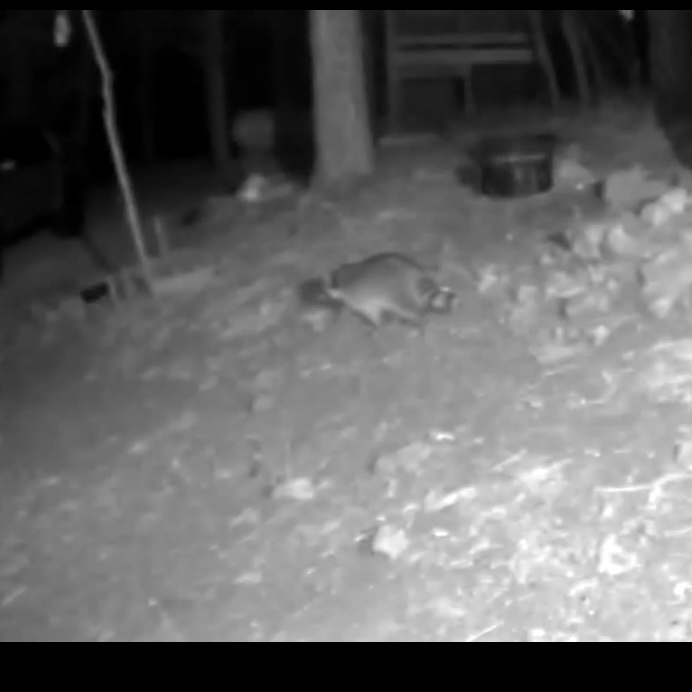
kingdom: Animalia
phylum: Chordata
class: Mammalia
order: Carnivora
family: Procyonidae
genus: Procyon
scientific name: Procyon lotor
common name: Raccoon
